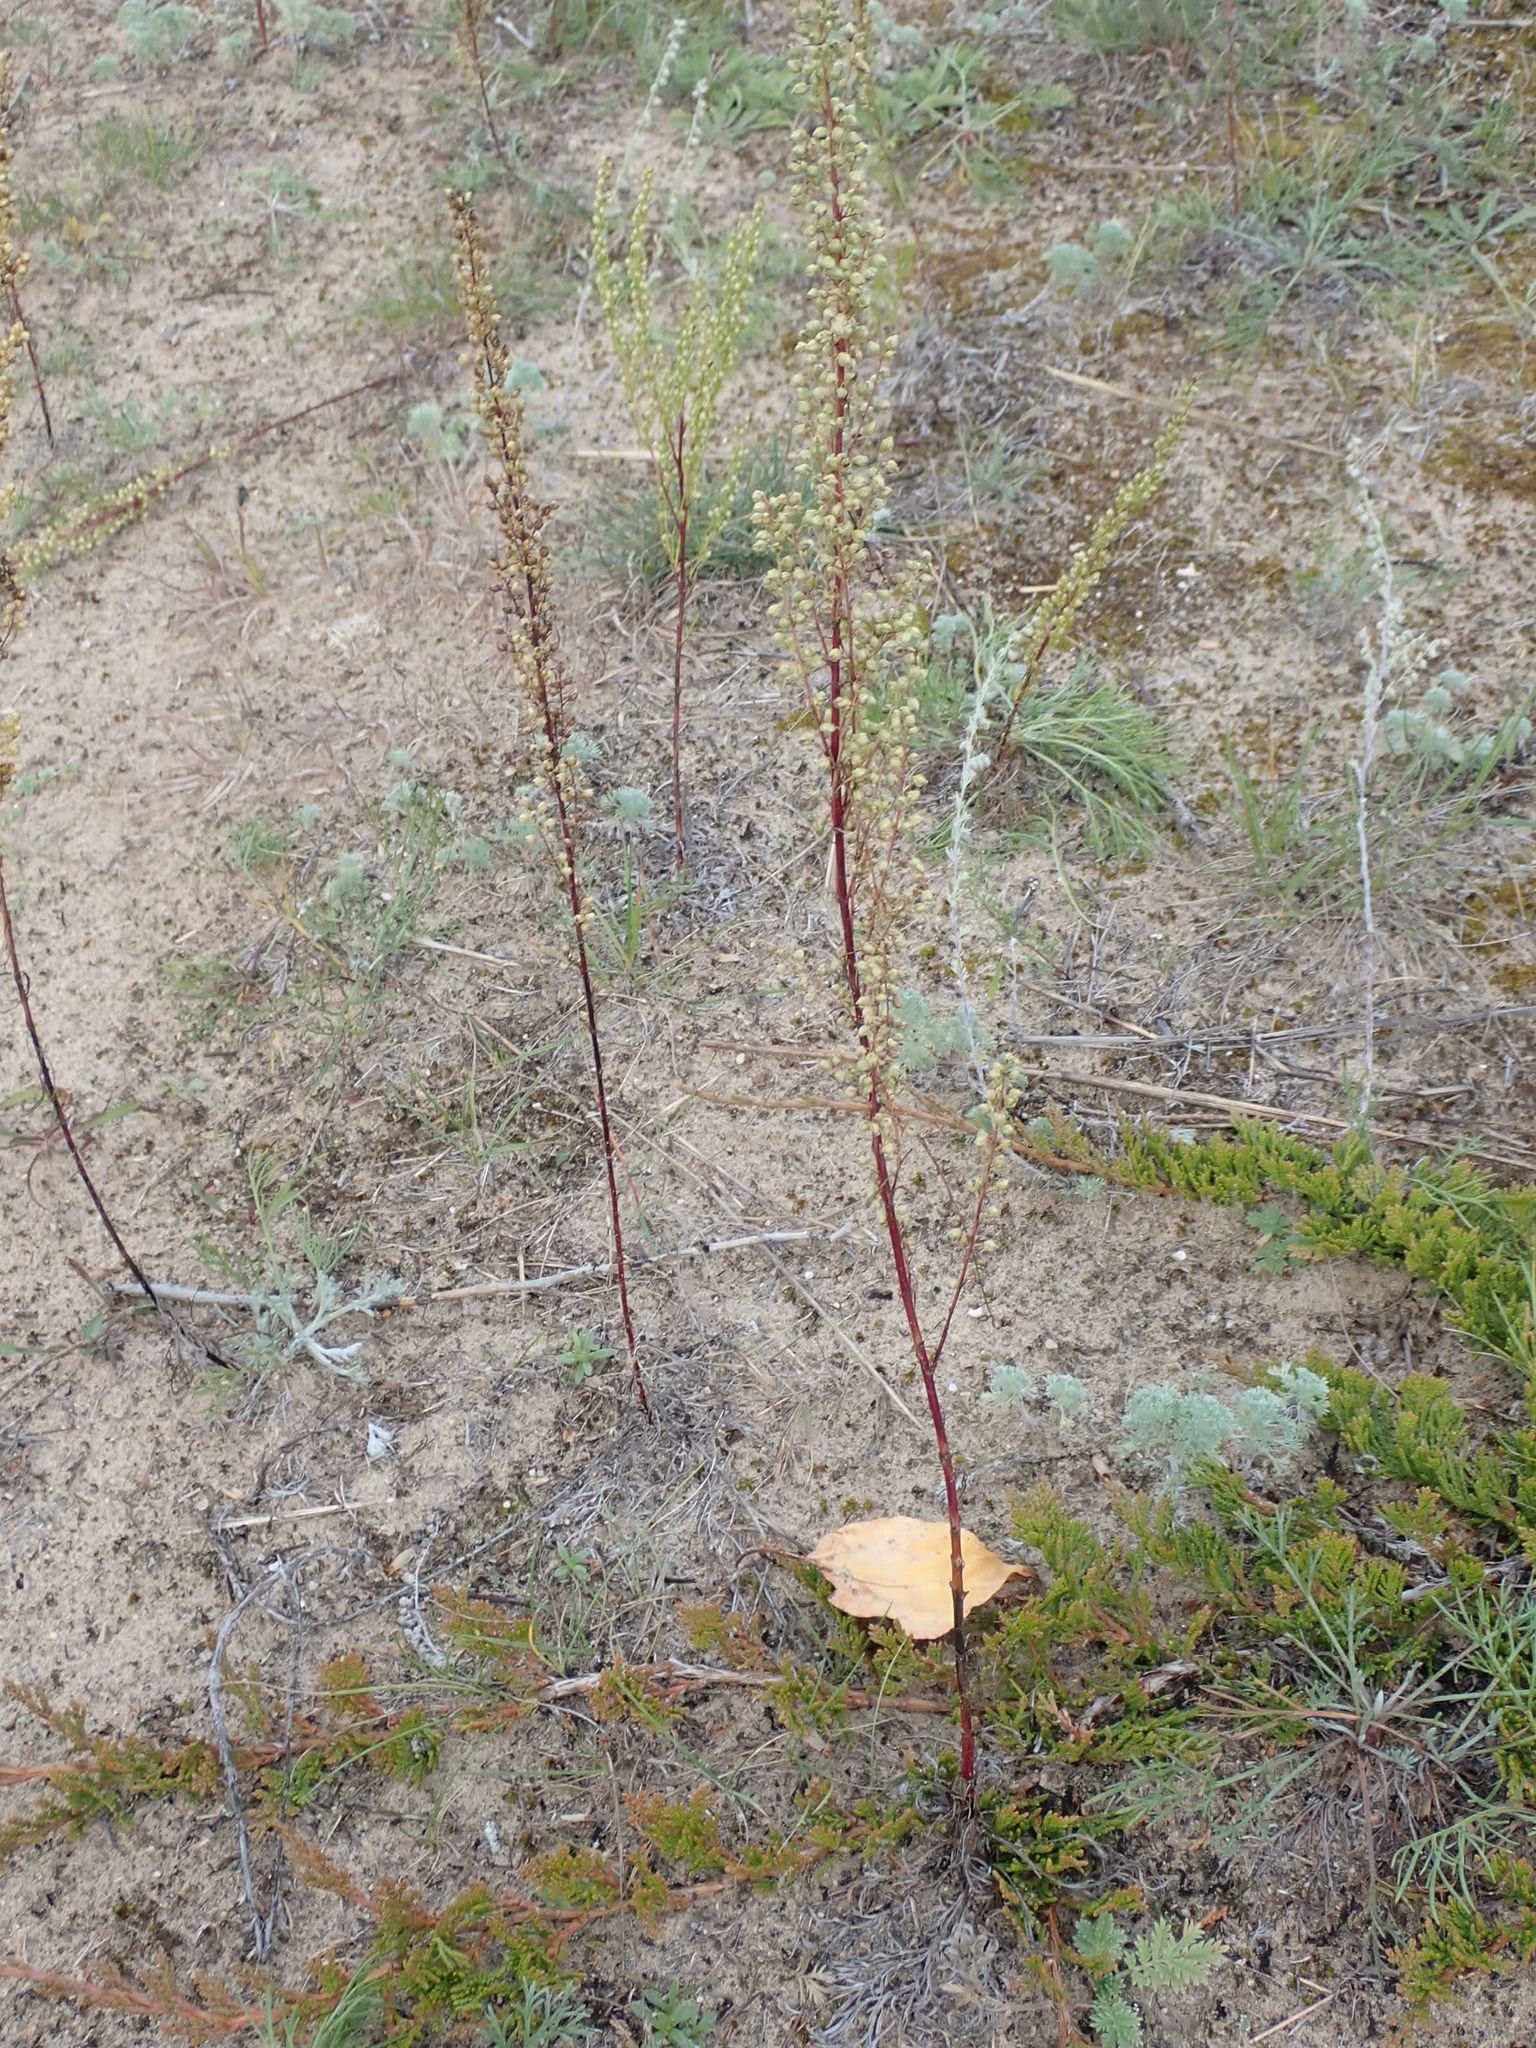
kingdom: Plantae
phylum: Tracheophyta
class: Magnoliopsida
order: Asterales
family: Asteraceae
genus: Artemisia
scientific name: Artemisia campestris
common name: Field wormwood
